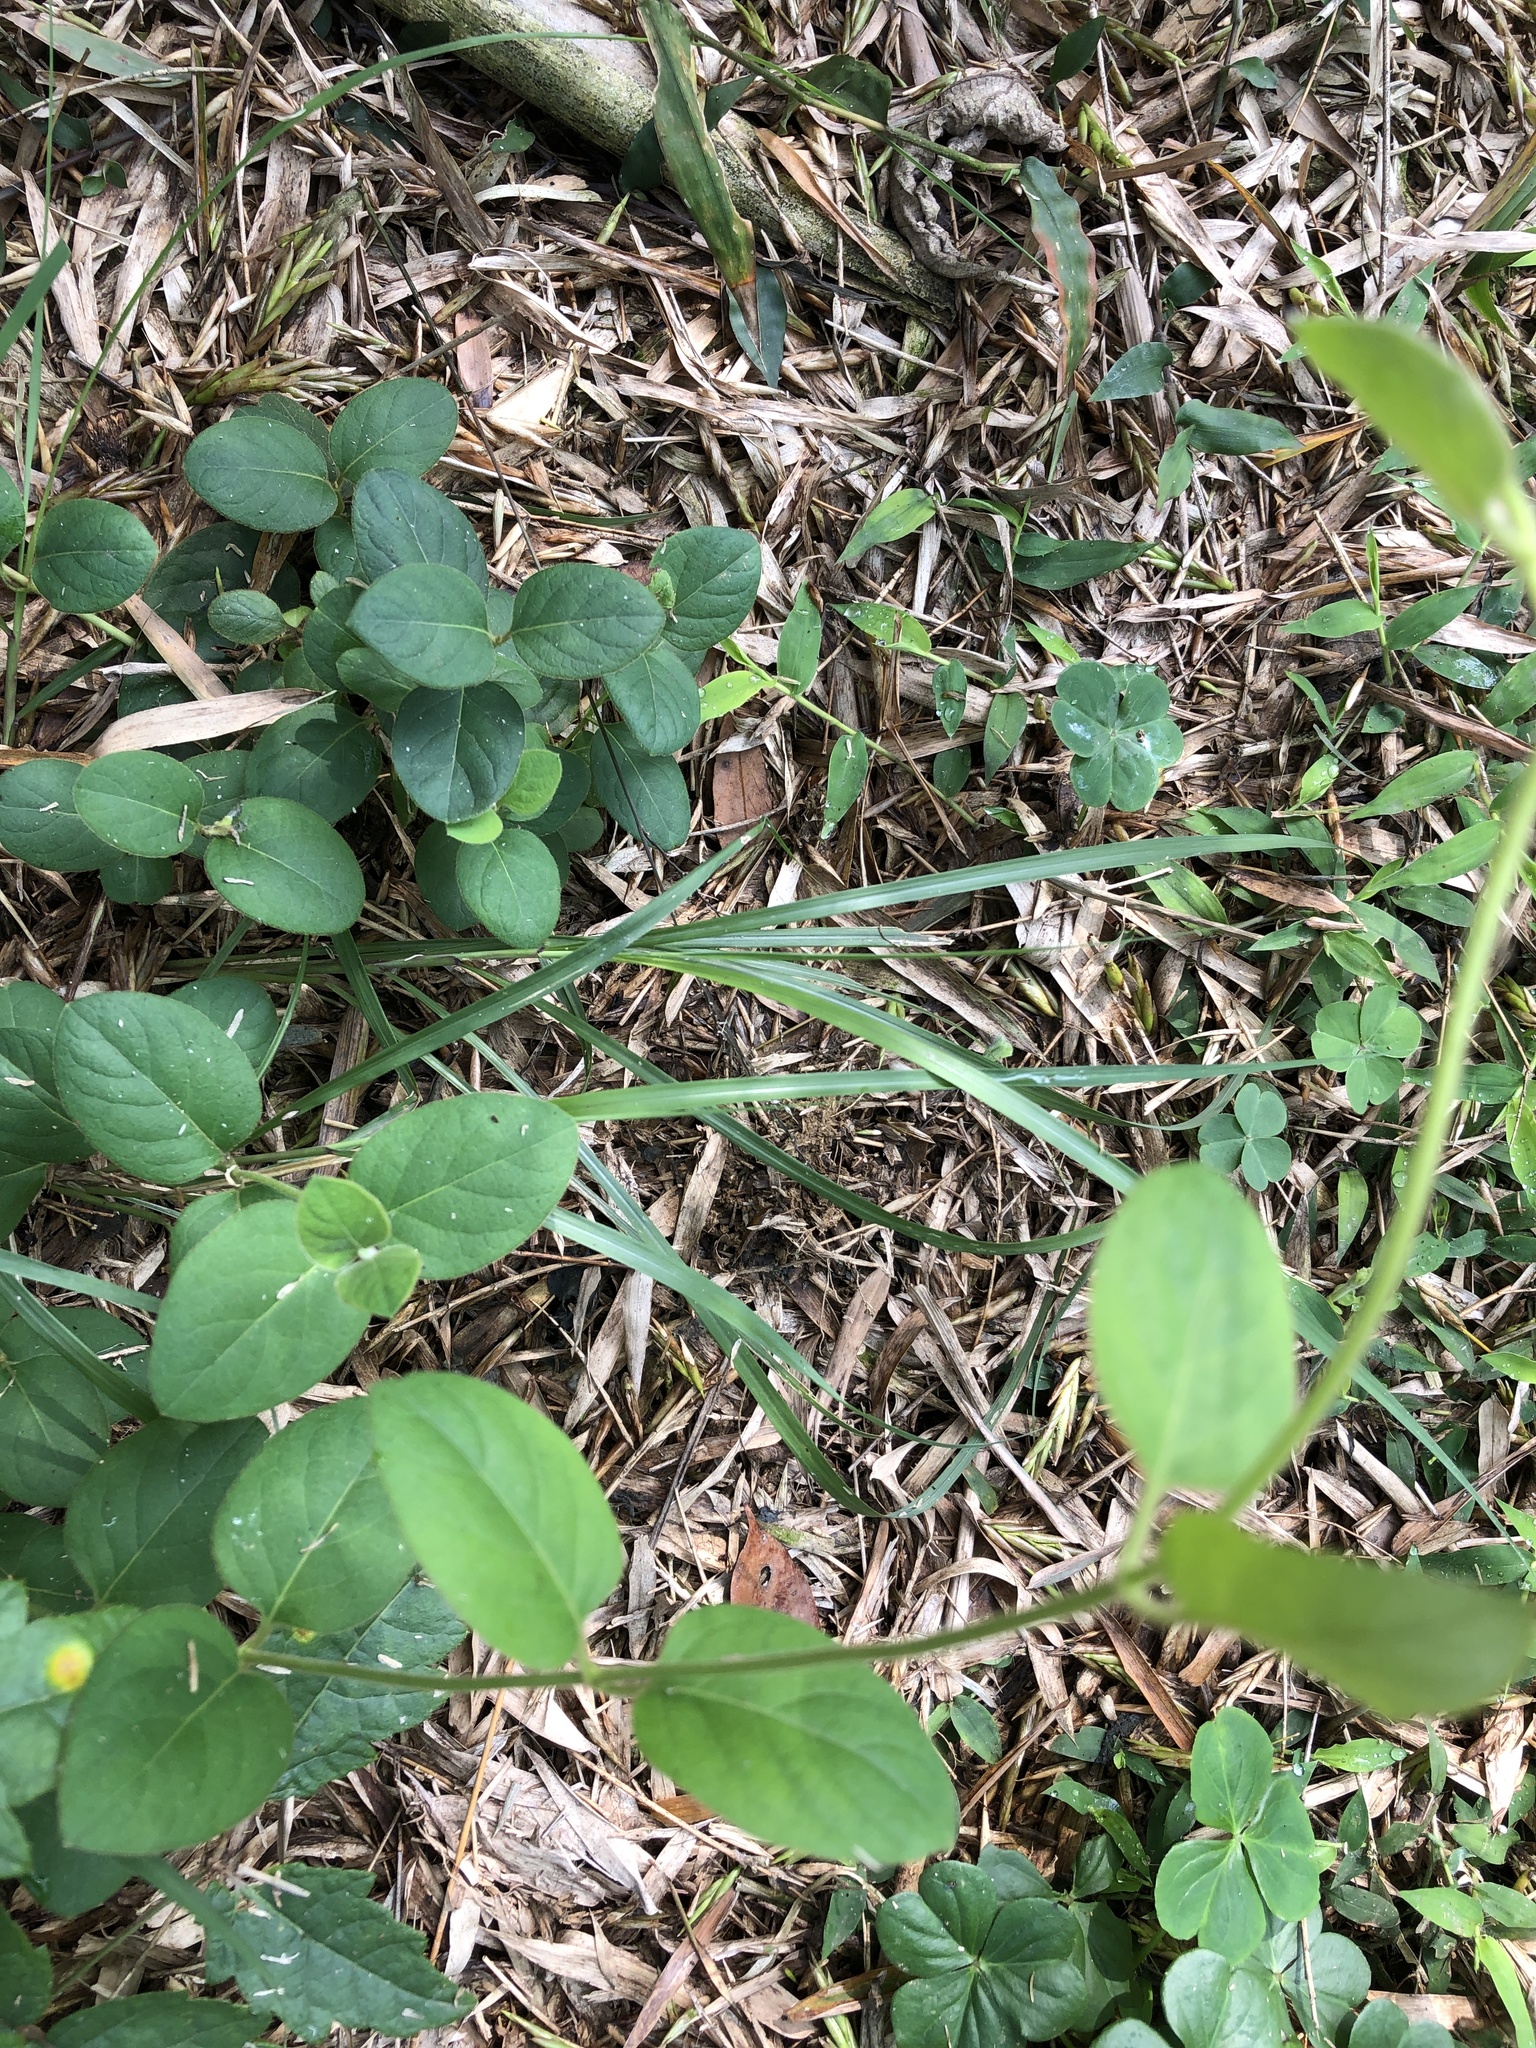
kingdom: Plantae
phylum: Tracheophyta
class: Magnoliopsida
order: Dipsacales
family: Caprifoliaceae
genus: Lonicera
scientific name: Lonicera japonica
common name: Japanese honeysuckle
